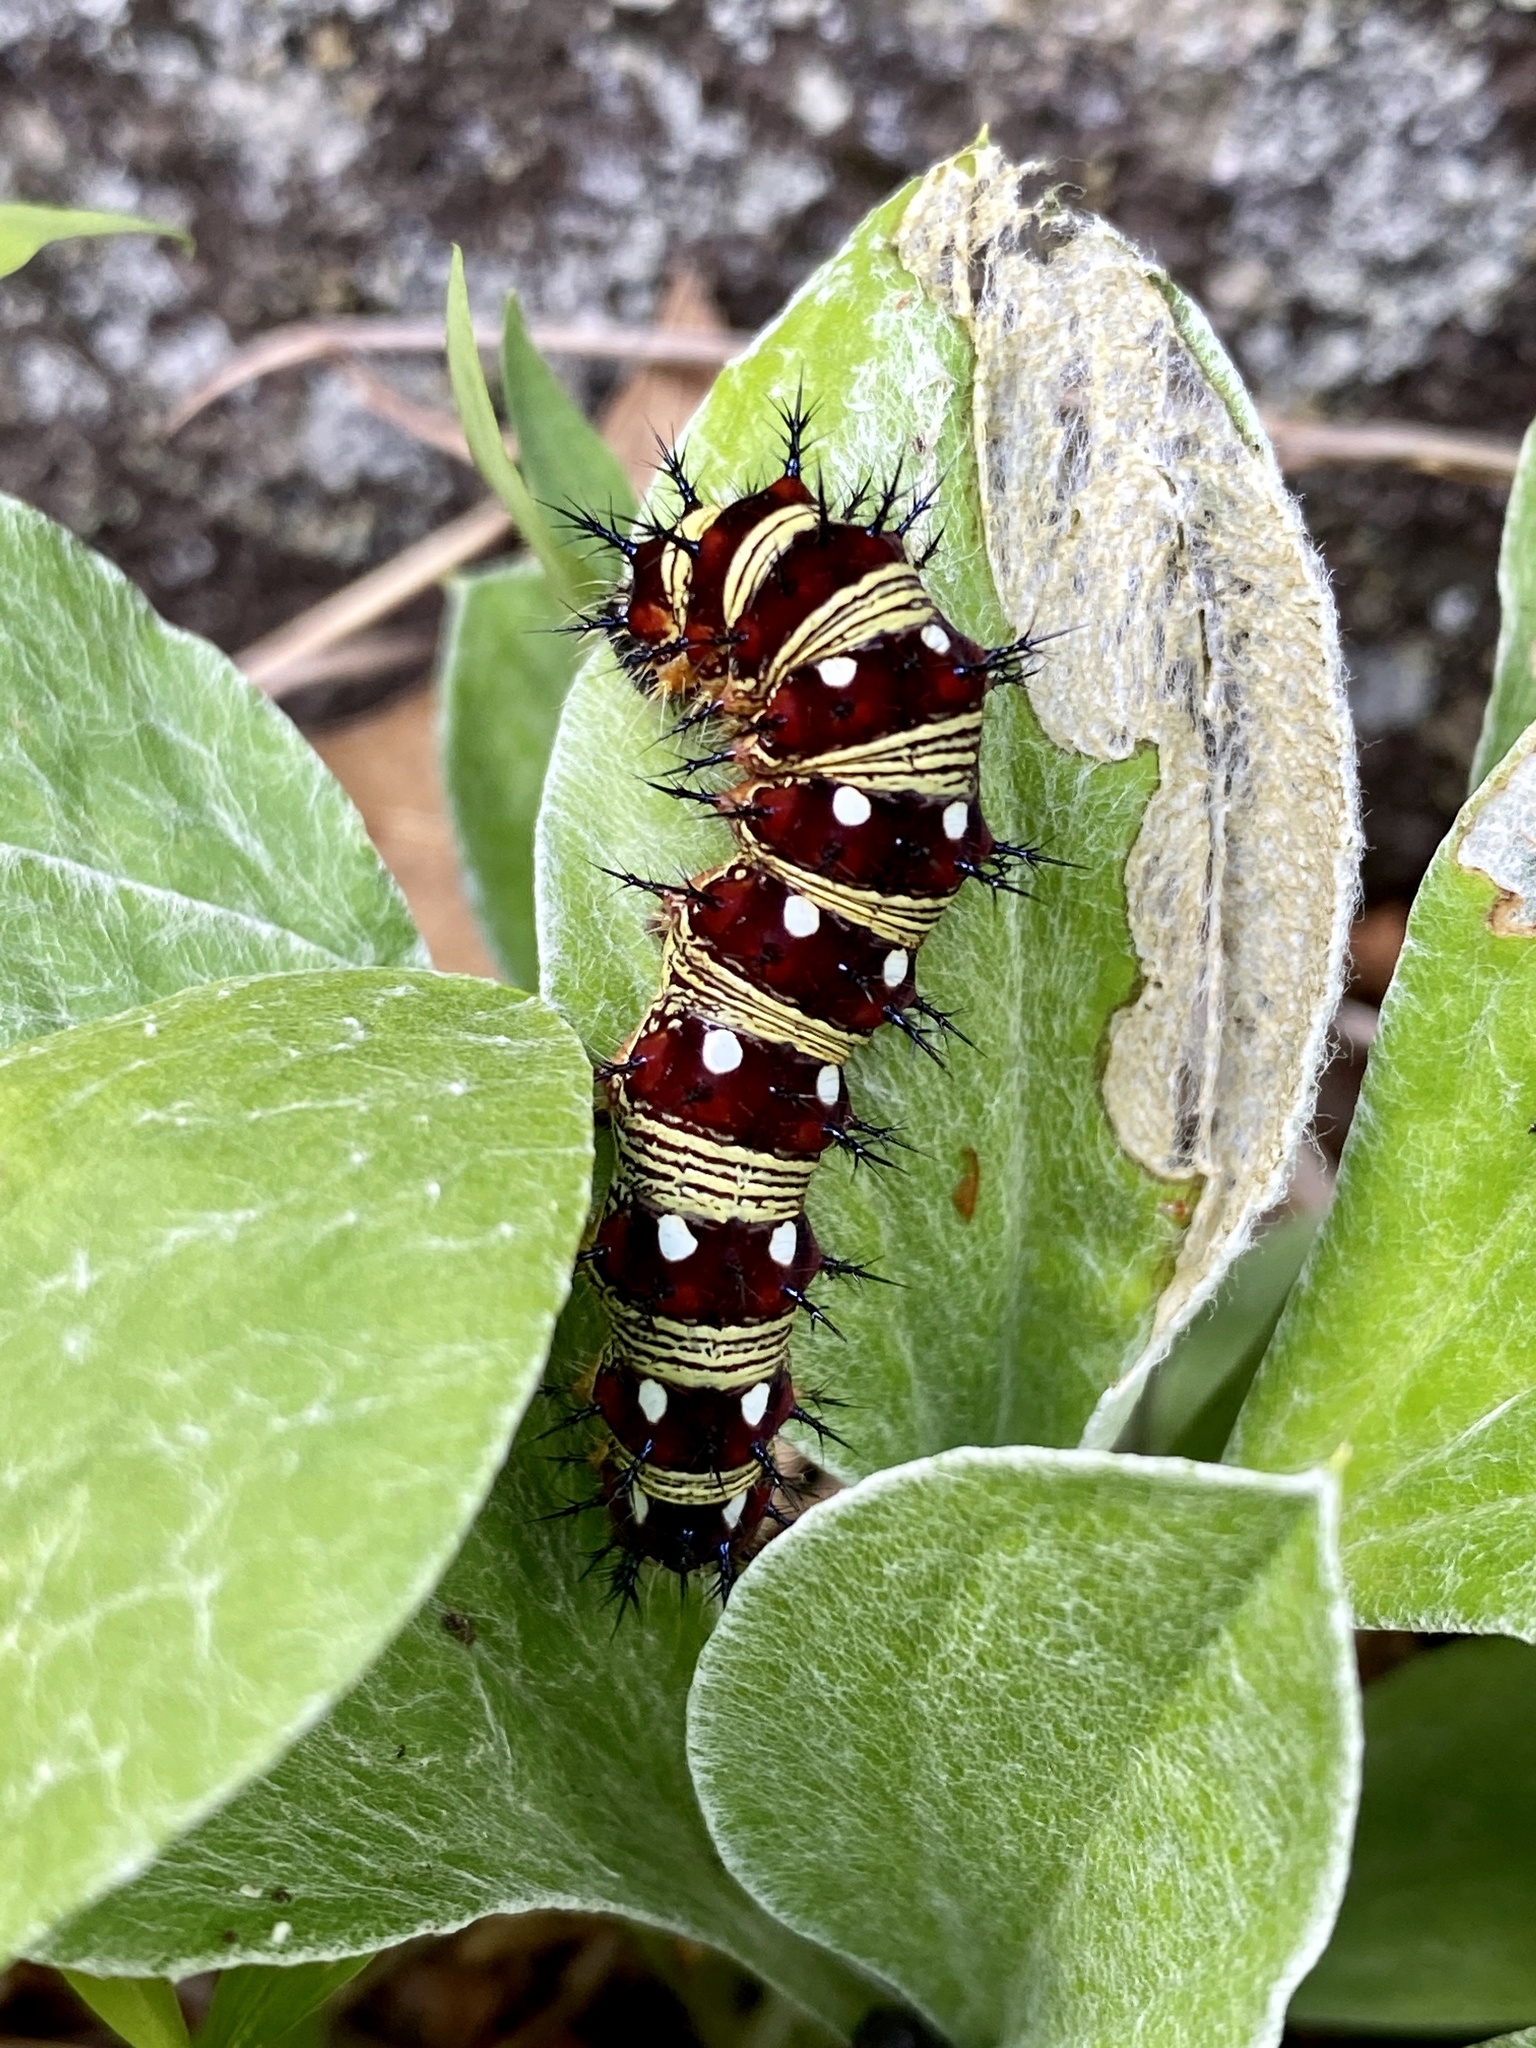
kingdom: Animalia
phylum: Arthropoda
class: Insecta
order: Lepidoptera
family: Nymphalidae
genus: Vanessa
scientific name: Vanessa virginiensis
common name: American lady
